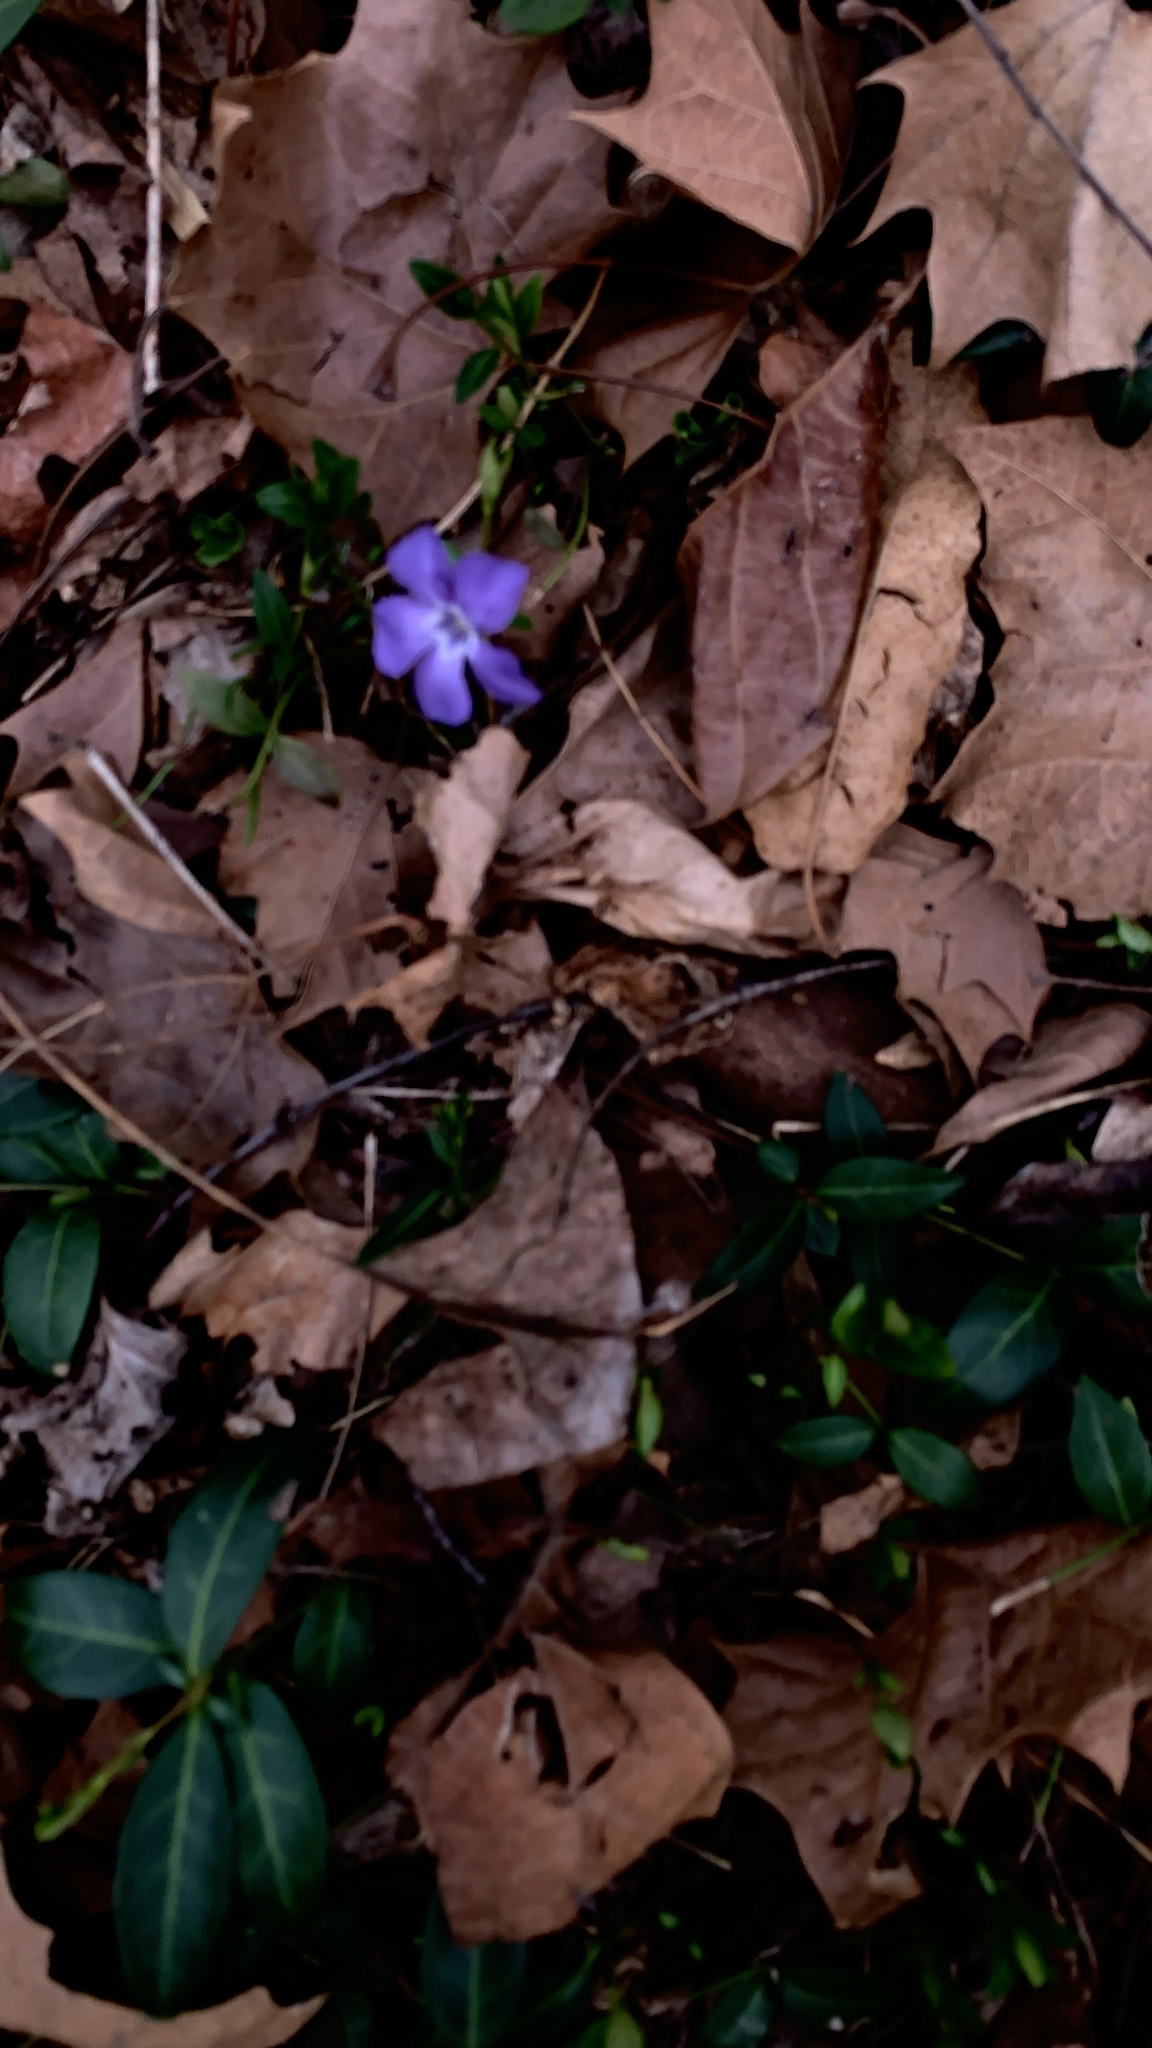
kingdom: Plantae
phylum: Tracheophyta
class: Magnoliopsida
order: Gentianales
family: Apocynaceae
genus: Vinca
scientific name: Vinca minor
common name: Lesser periwinkle
